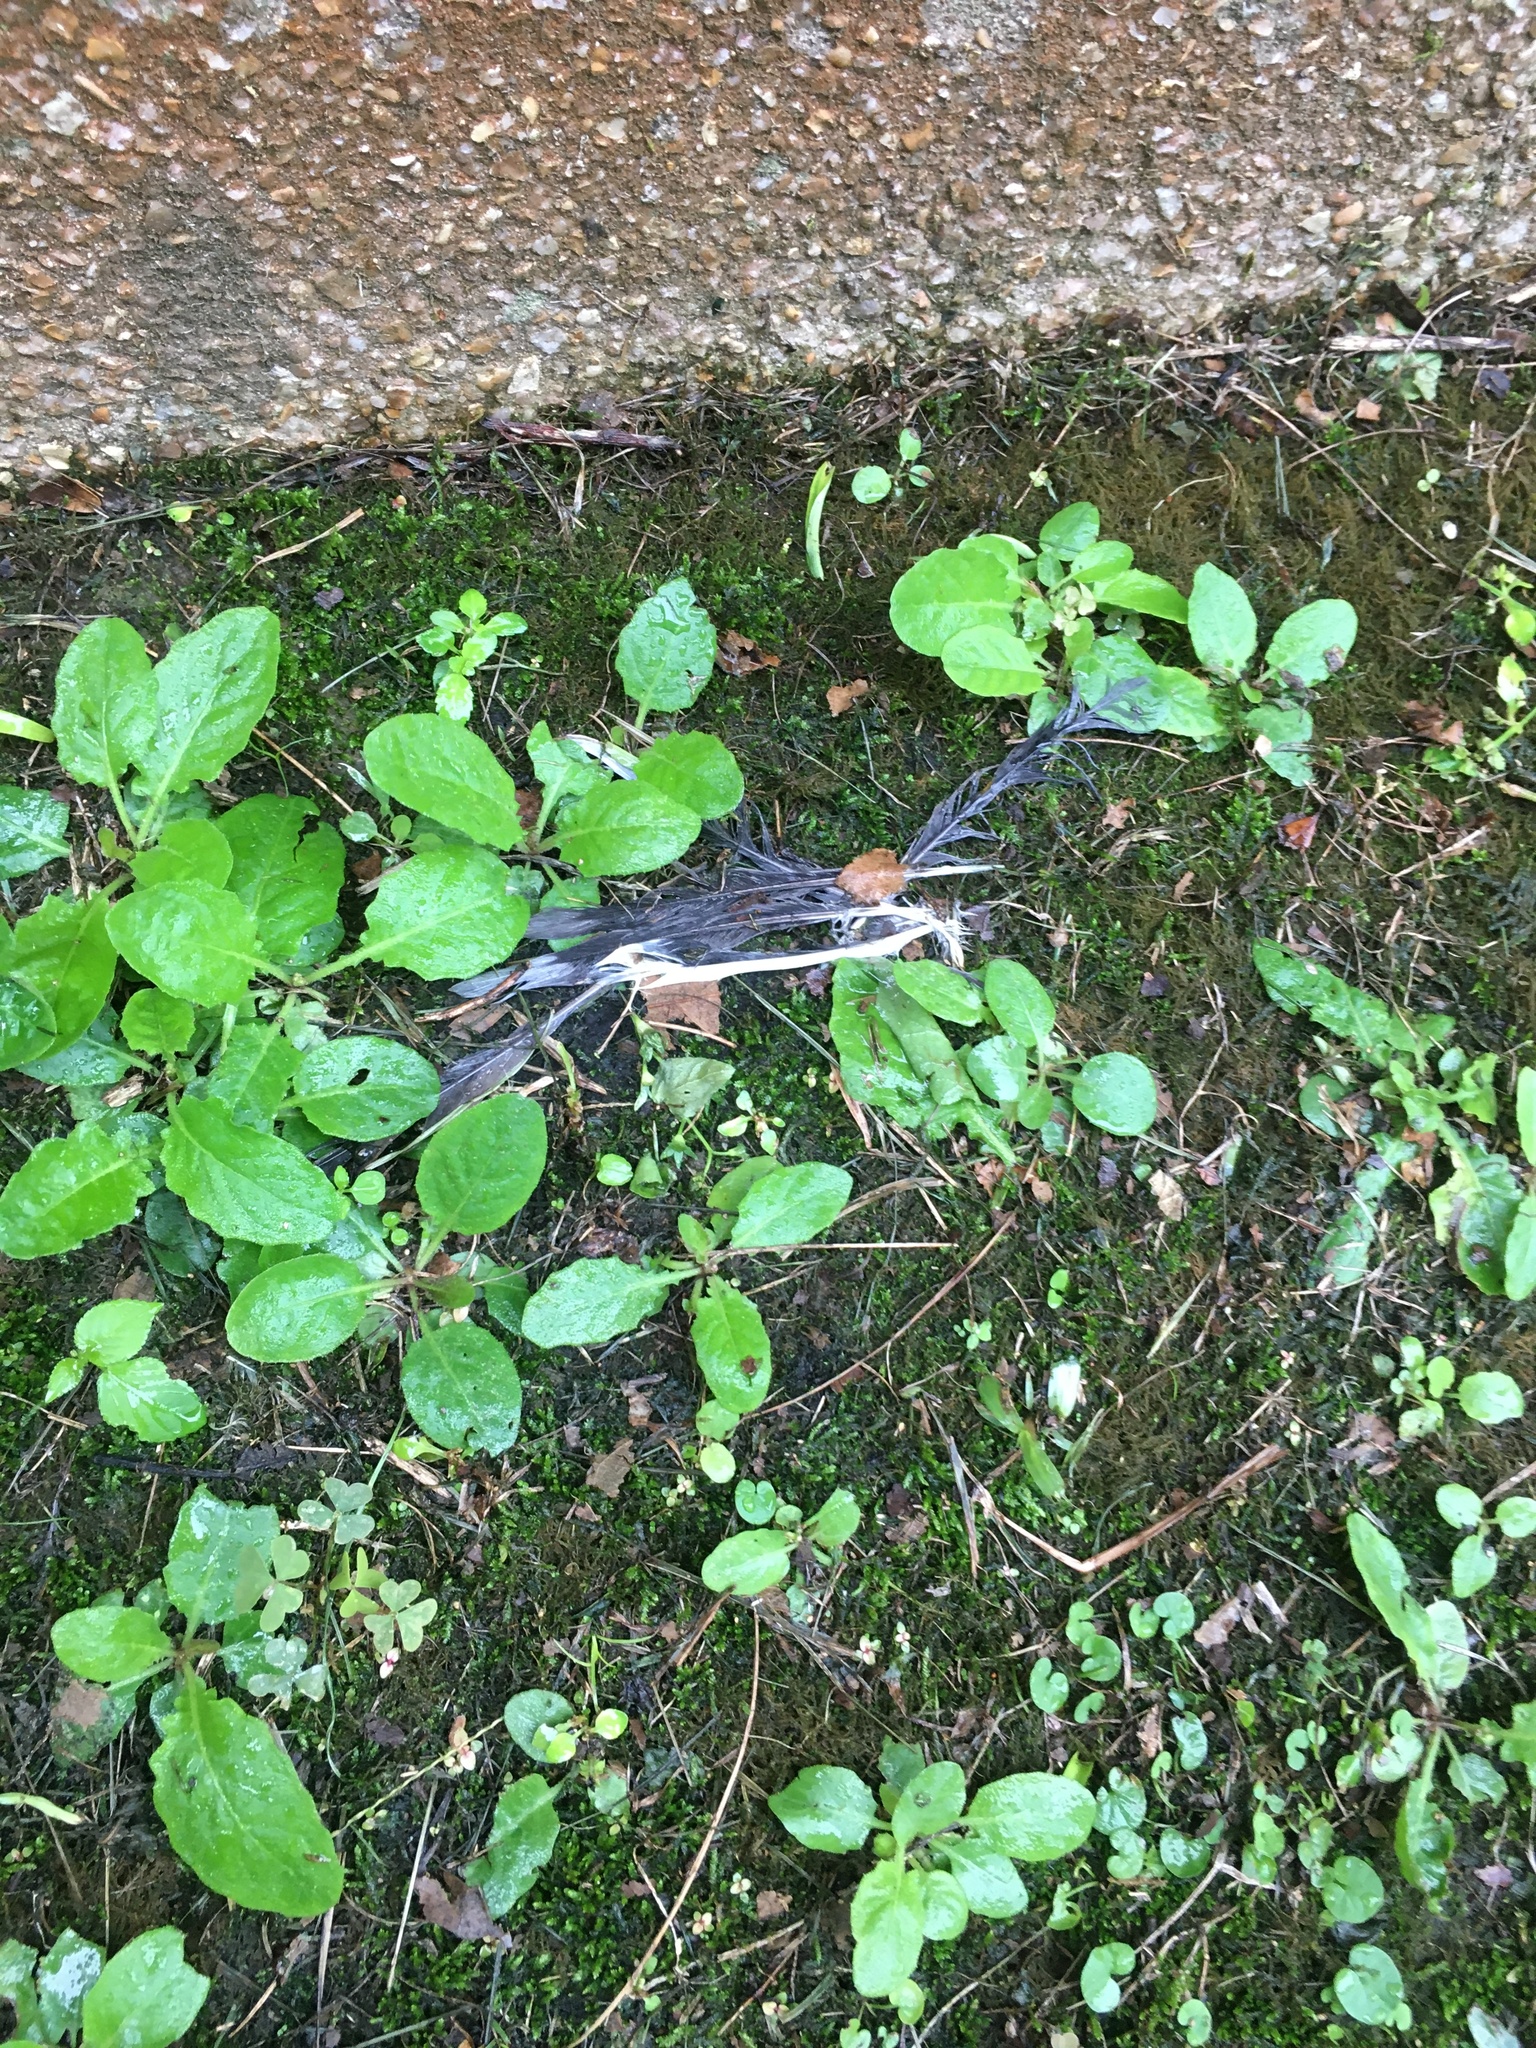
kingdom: Animalia
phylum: Chordata
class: Aves
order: Columbiformes
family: Columbidae
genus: Zenaida
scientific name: Zenaida macroura
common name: Mourning dove
